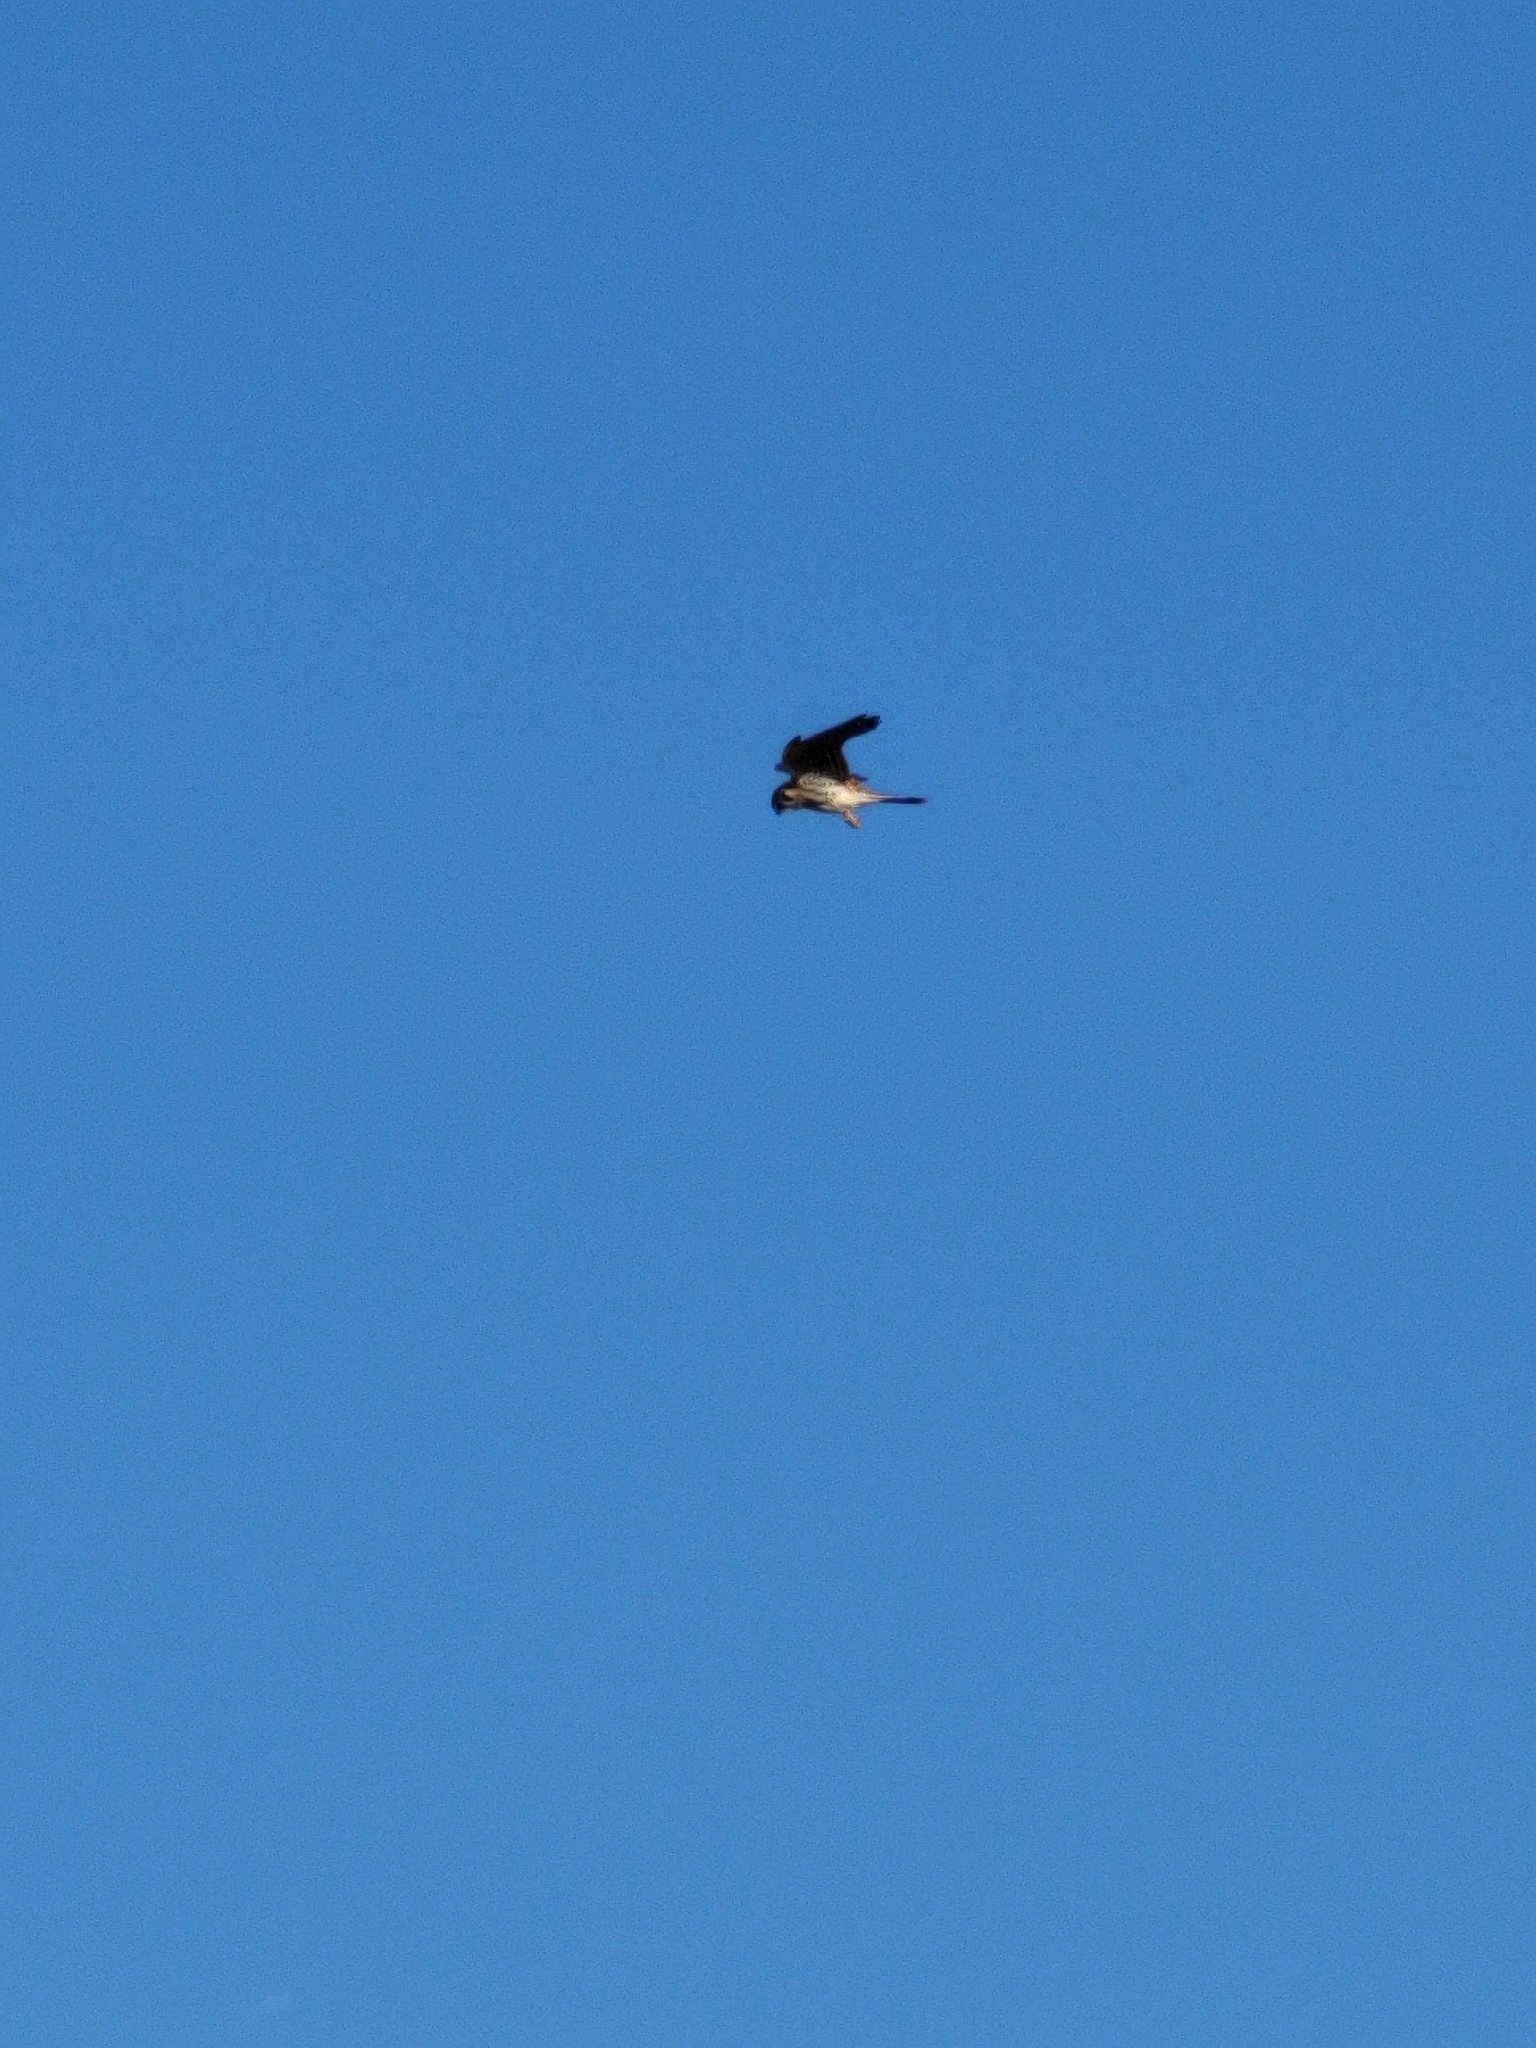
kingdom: Animalia
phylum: Chordata
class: Aves
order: Falconiformes
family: Falconidae
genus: Falco
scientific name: Falco sparverius
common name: American kestrel
